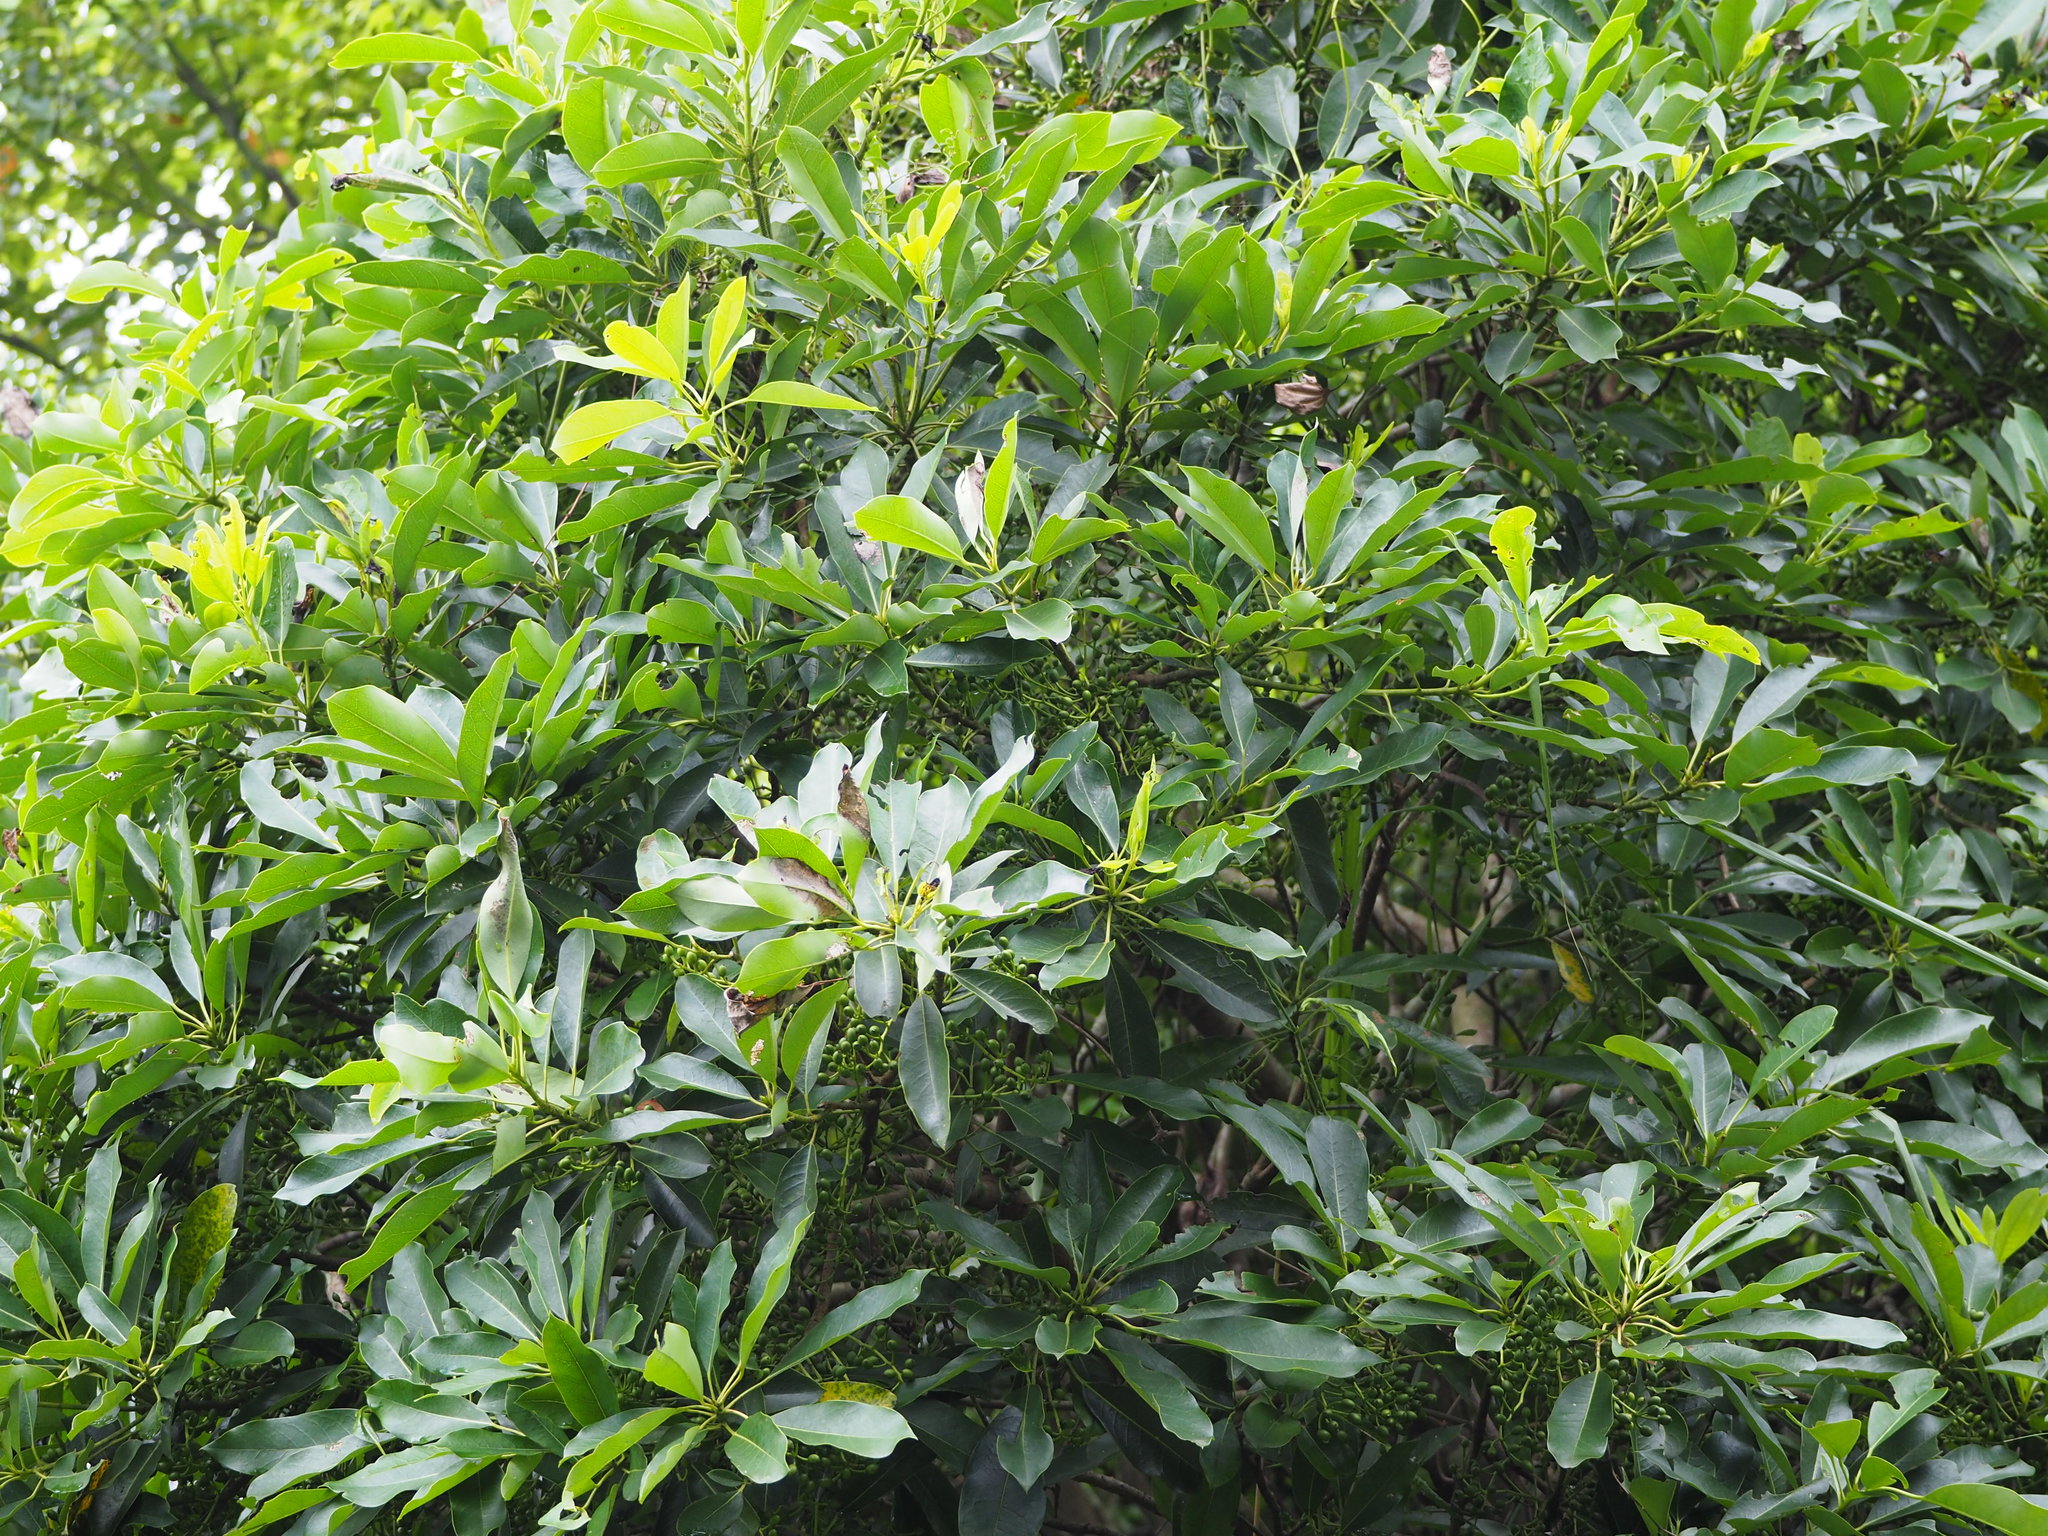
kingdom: Plantae
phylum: Tracheophyta
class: Magnoliopsida
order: Saxifragales
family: Daphniphyllaceae
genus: Daphniphyllum
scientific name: Daphniphyllum pentandrum
